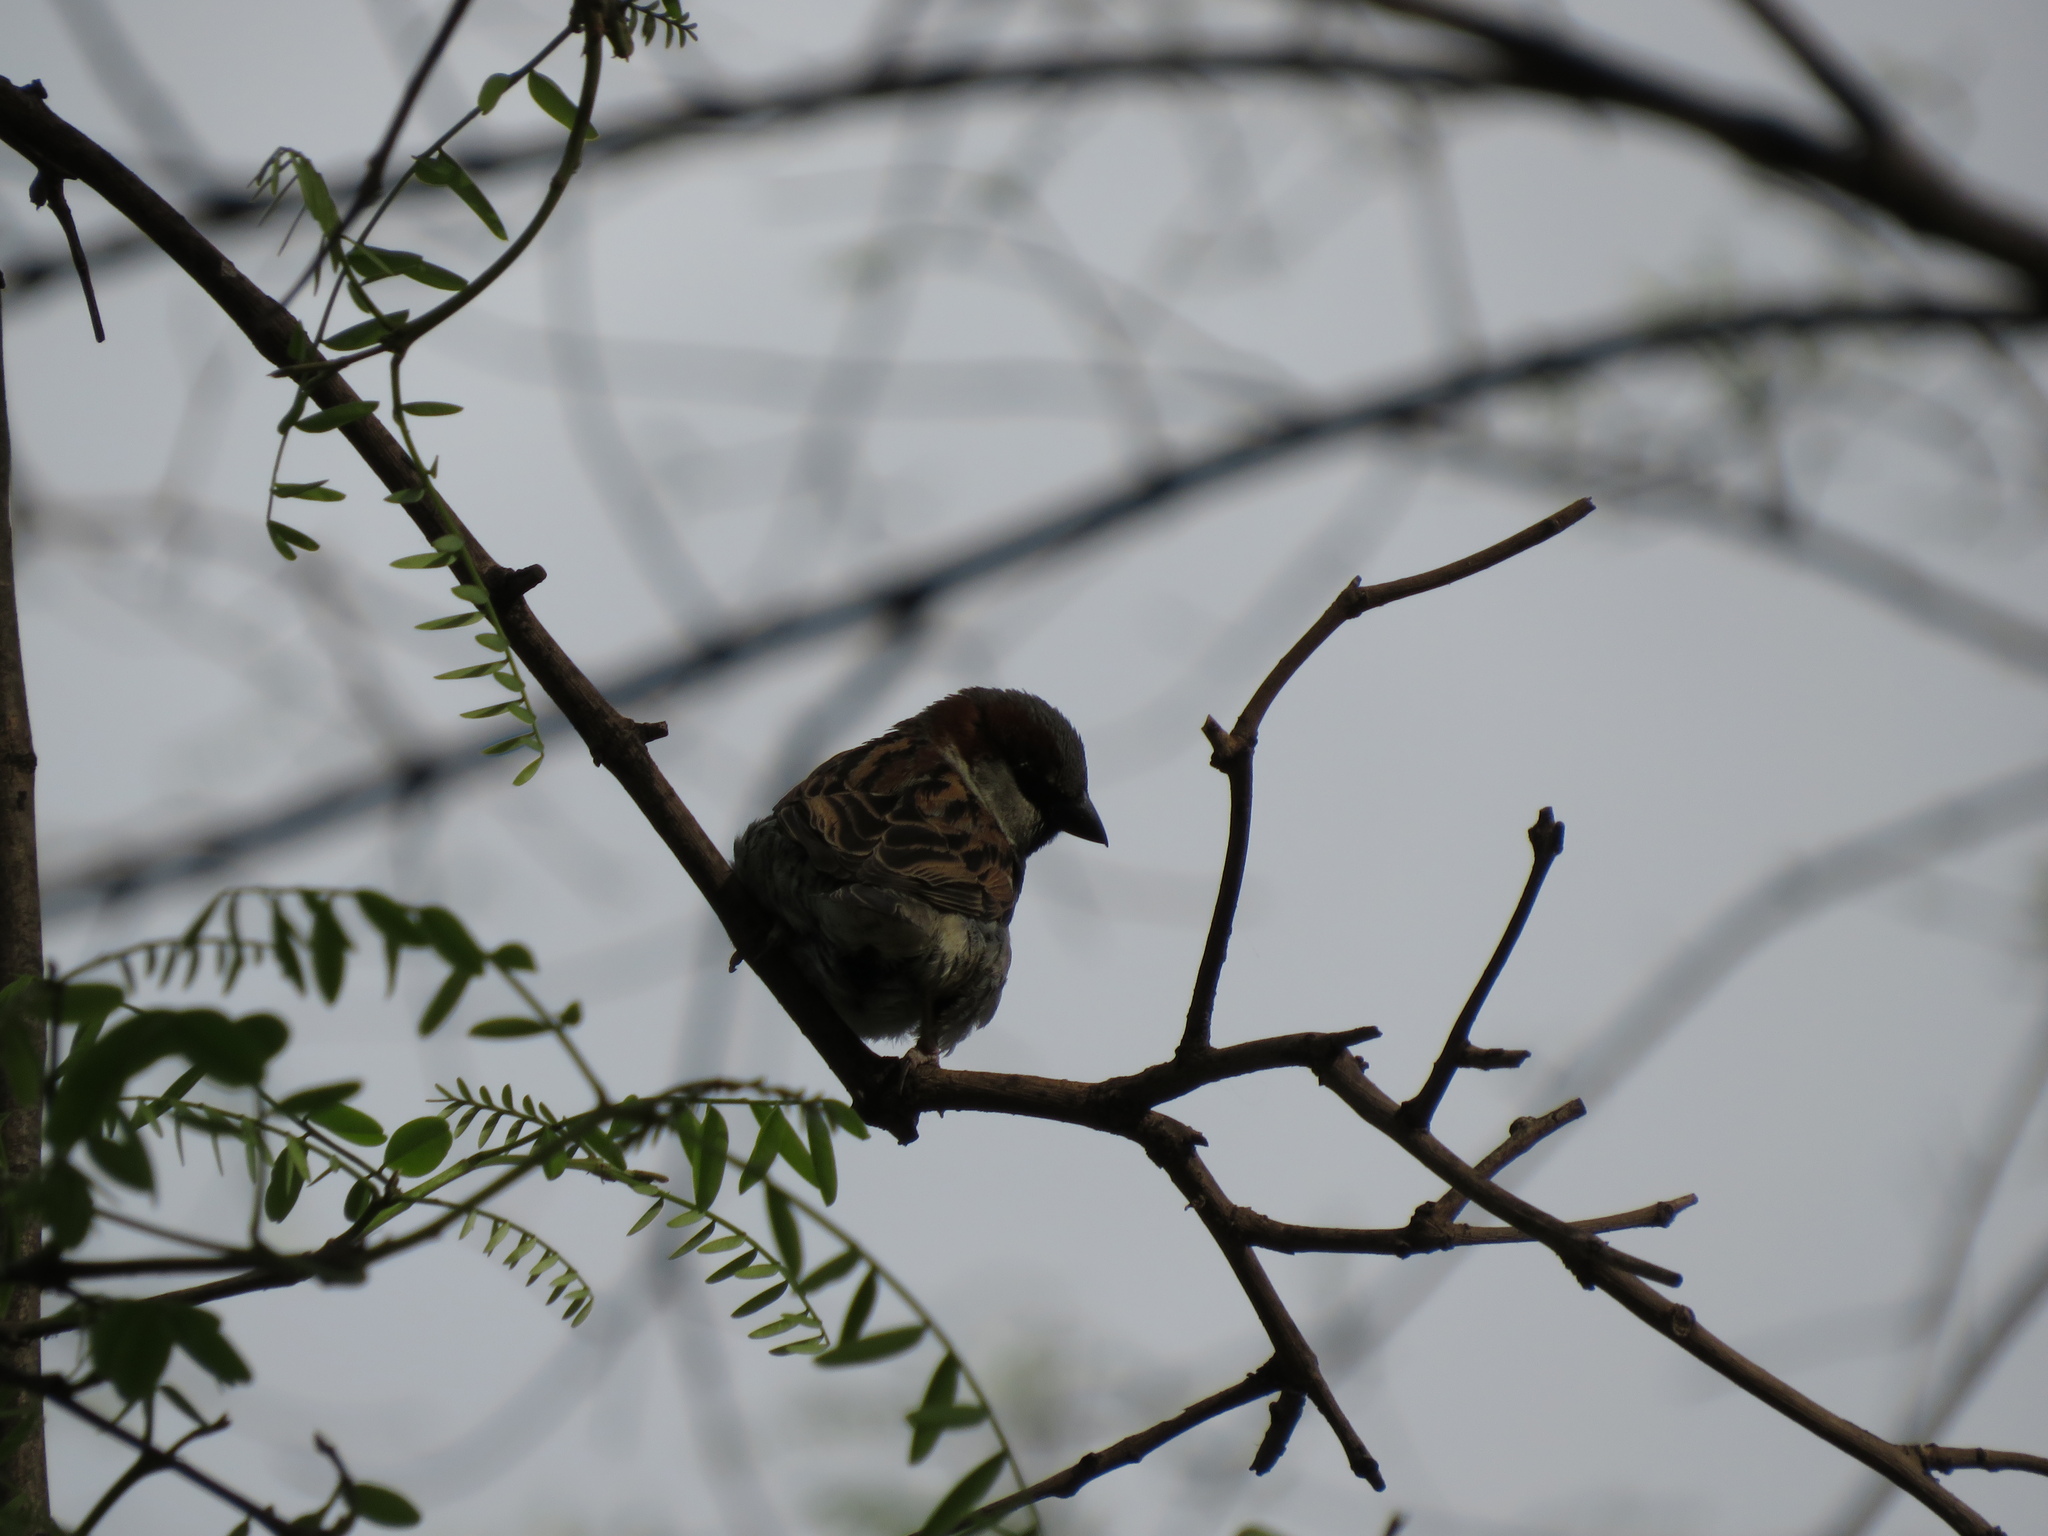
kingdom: Animalia
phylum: Chordata
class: Aves
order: Passeriformes
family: Passeridae
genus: Passer
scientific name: Passer domesticus
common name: House sparrow
